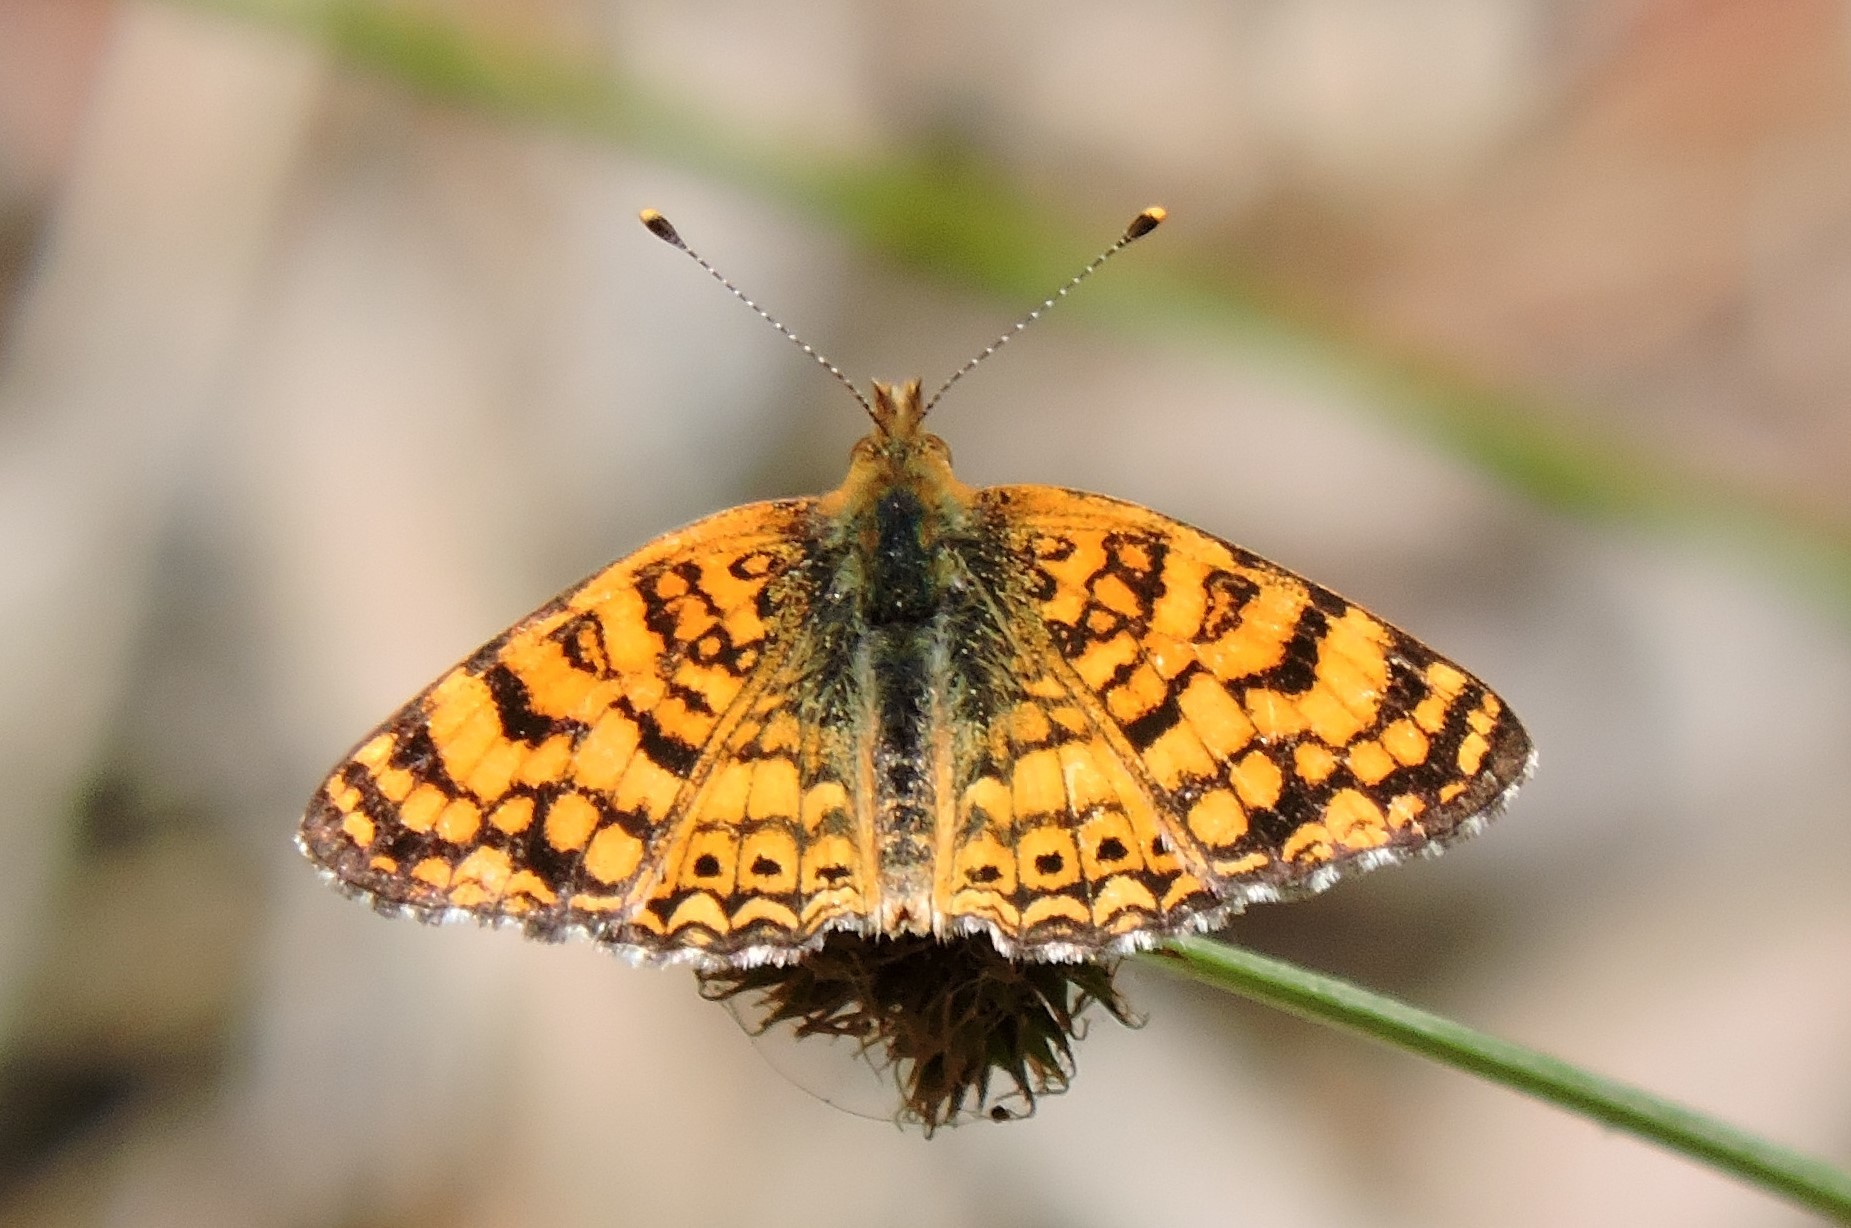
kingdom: Animalia
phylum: Arthropoda
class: Insecta
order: Lepidoptera
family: Nymphalidae
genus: Eresia
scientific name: Eresia aveyrona
